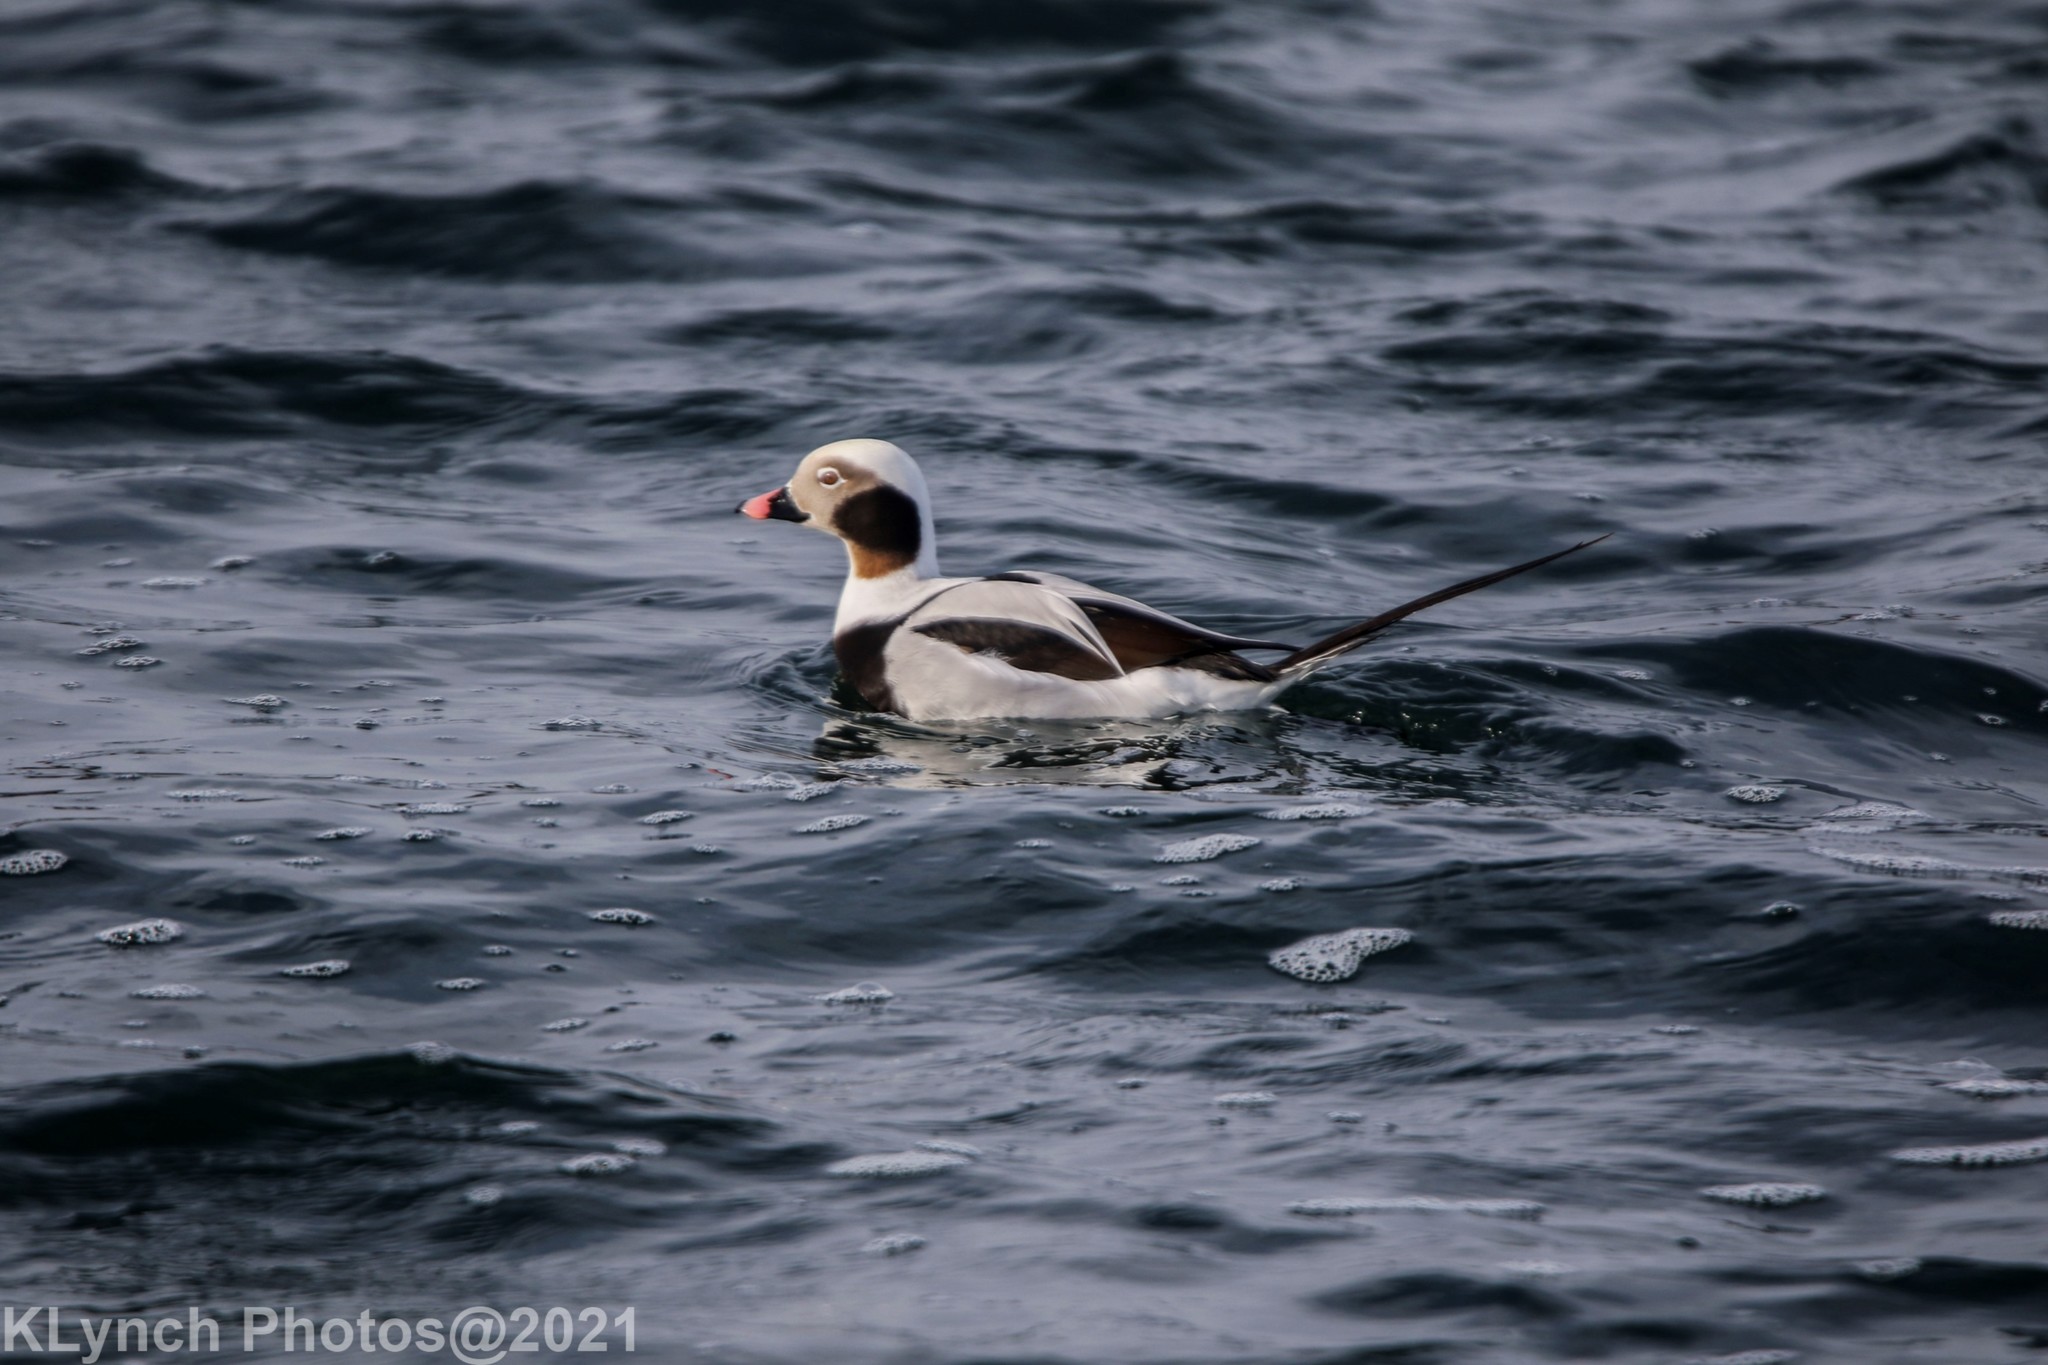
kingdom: Animalia
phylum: Chordata
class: Aves
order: Anseriformes
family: Anatidae
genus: Clangula
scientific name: Clangula hyemalis
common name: Long-tailed duck
